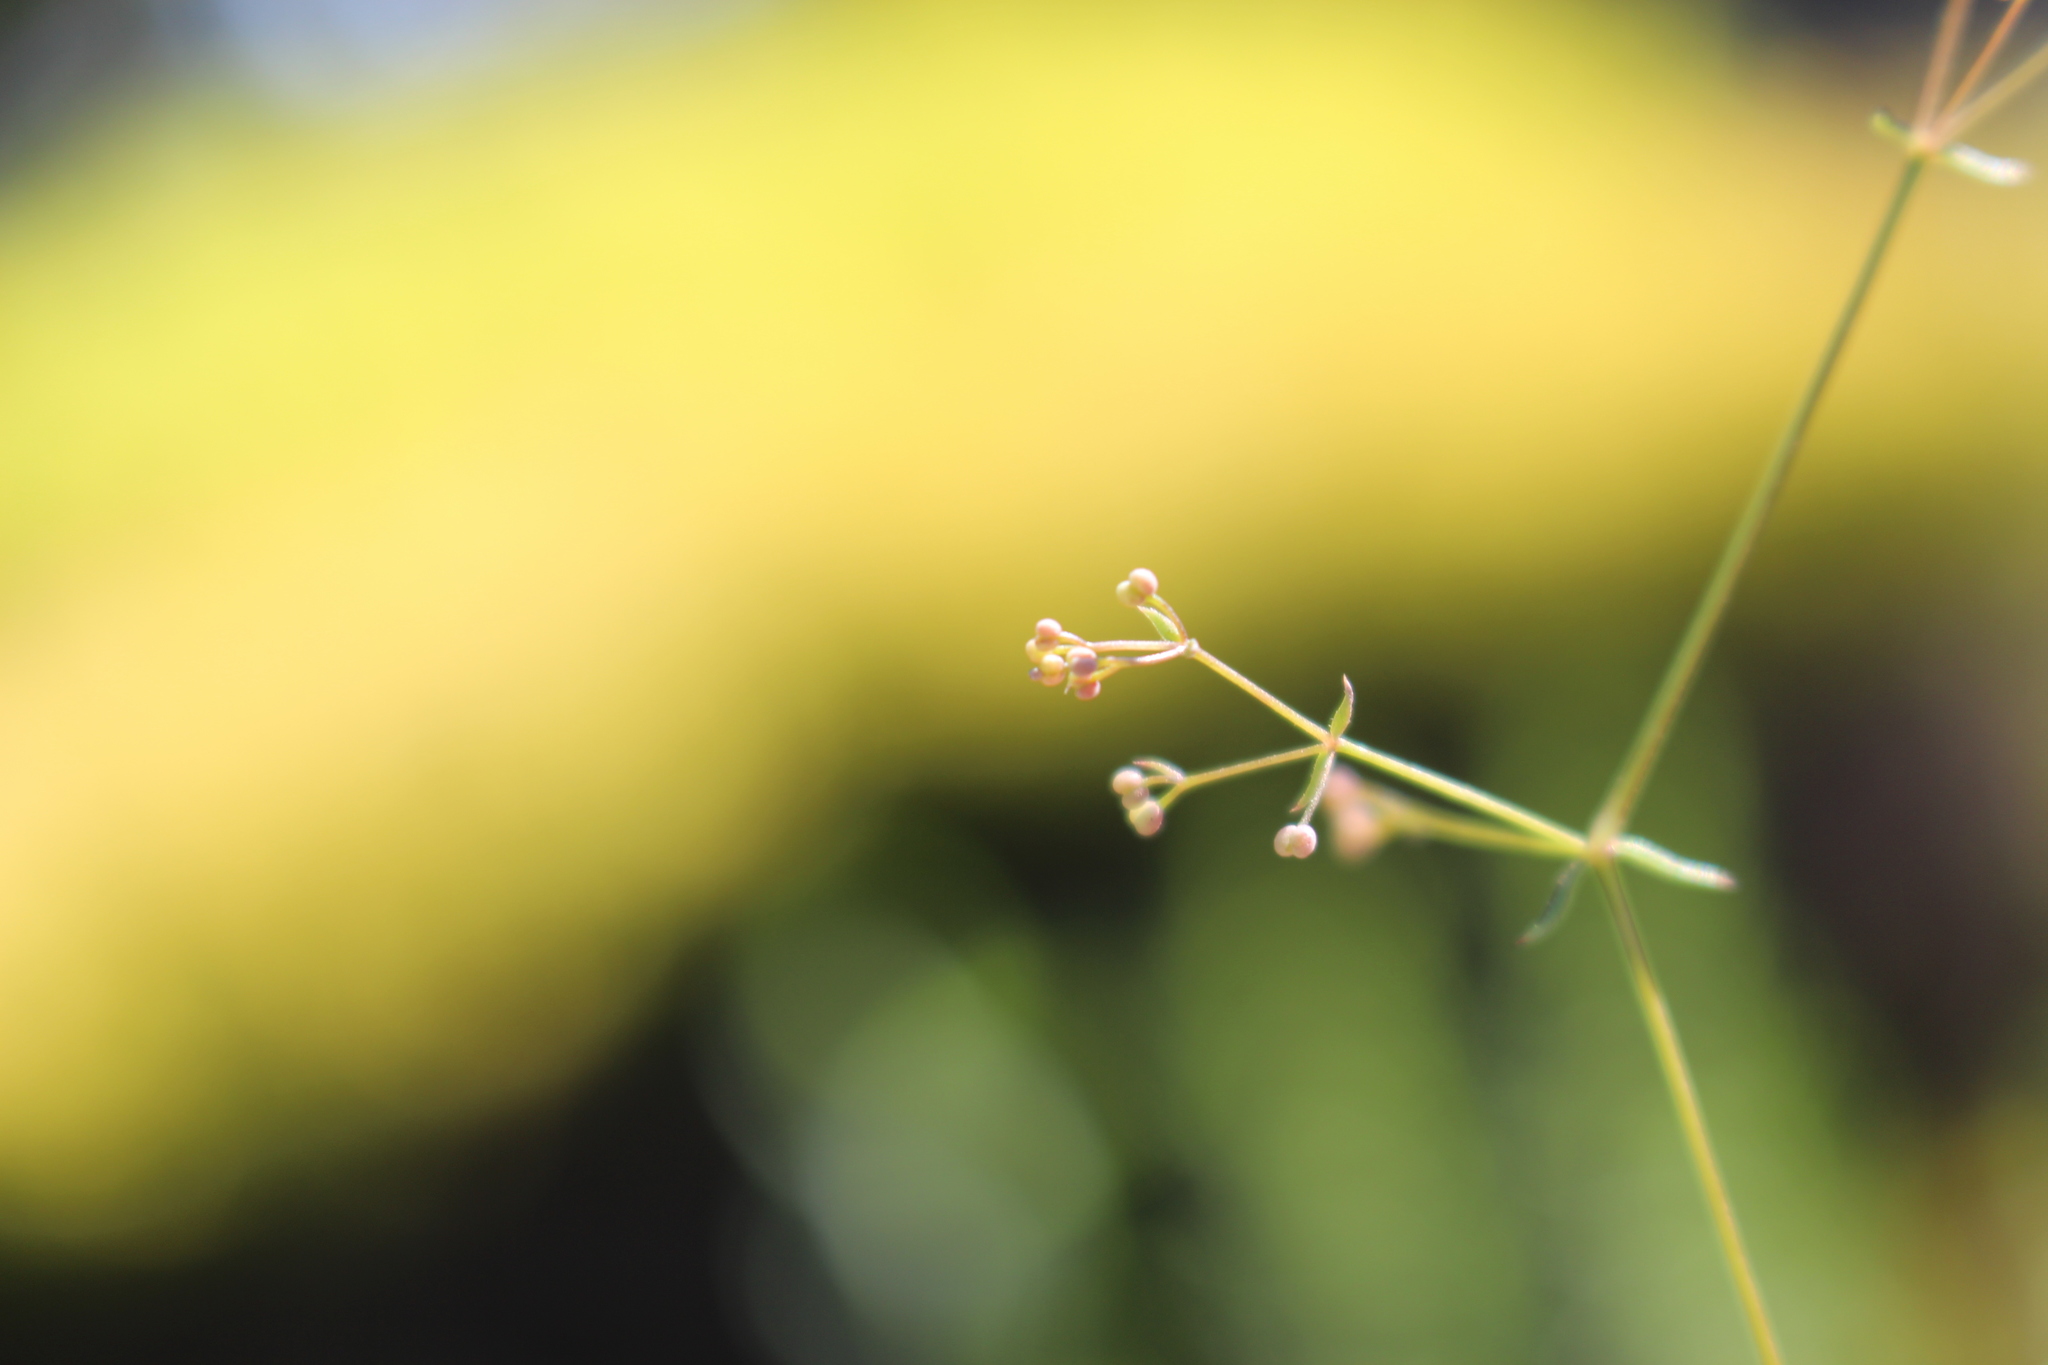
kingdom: Plantae
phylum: Tracheophyta
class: Magnoliopsida
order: Gentianales
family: Rubiaceae
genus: Galium
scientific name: Galium divaricatum
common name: Lamarck's bedstraw
